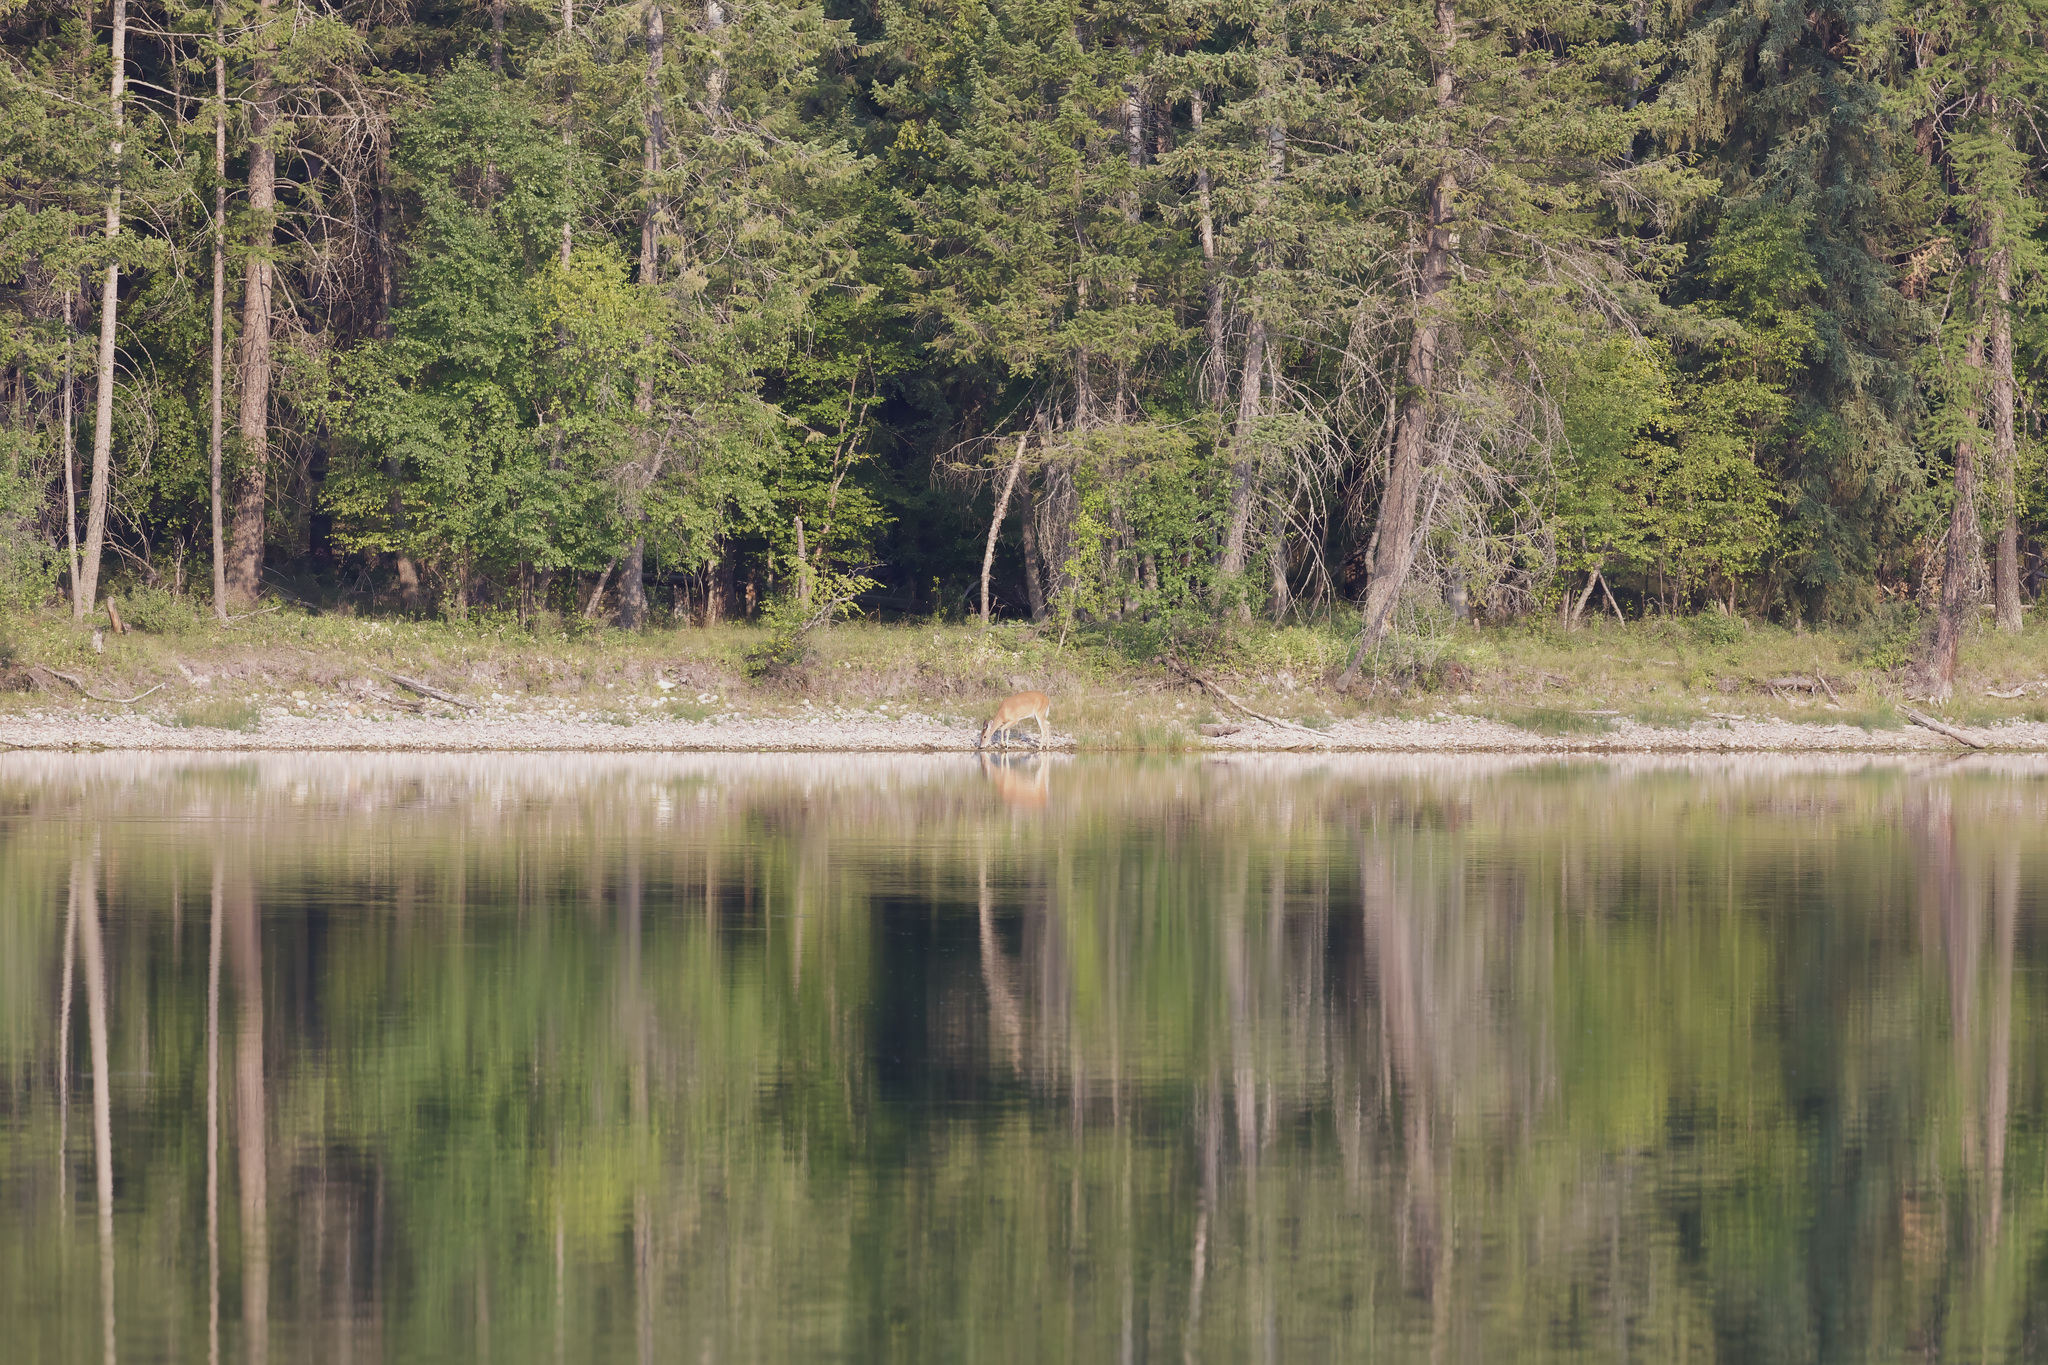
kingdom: Animalia
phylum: Chordata
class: Mammalia
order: Artiodactyla
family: Cervidae
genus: Odocoileus
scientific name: Odocoileus virginianus
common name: White-tailed deer
